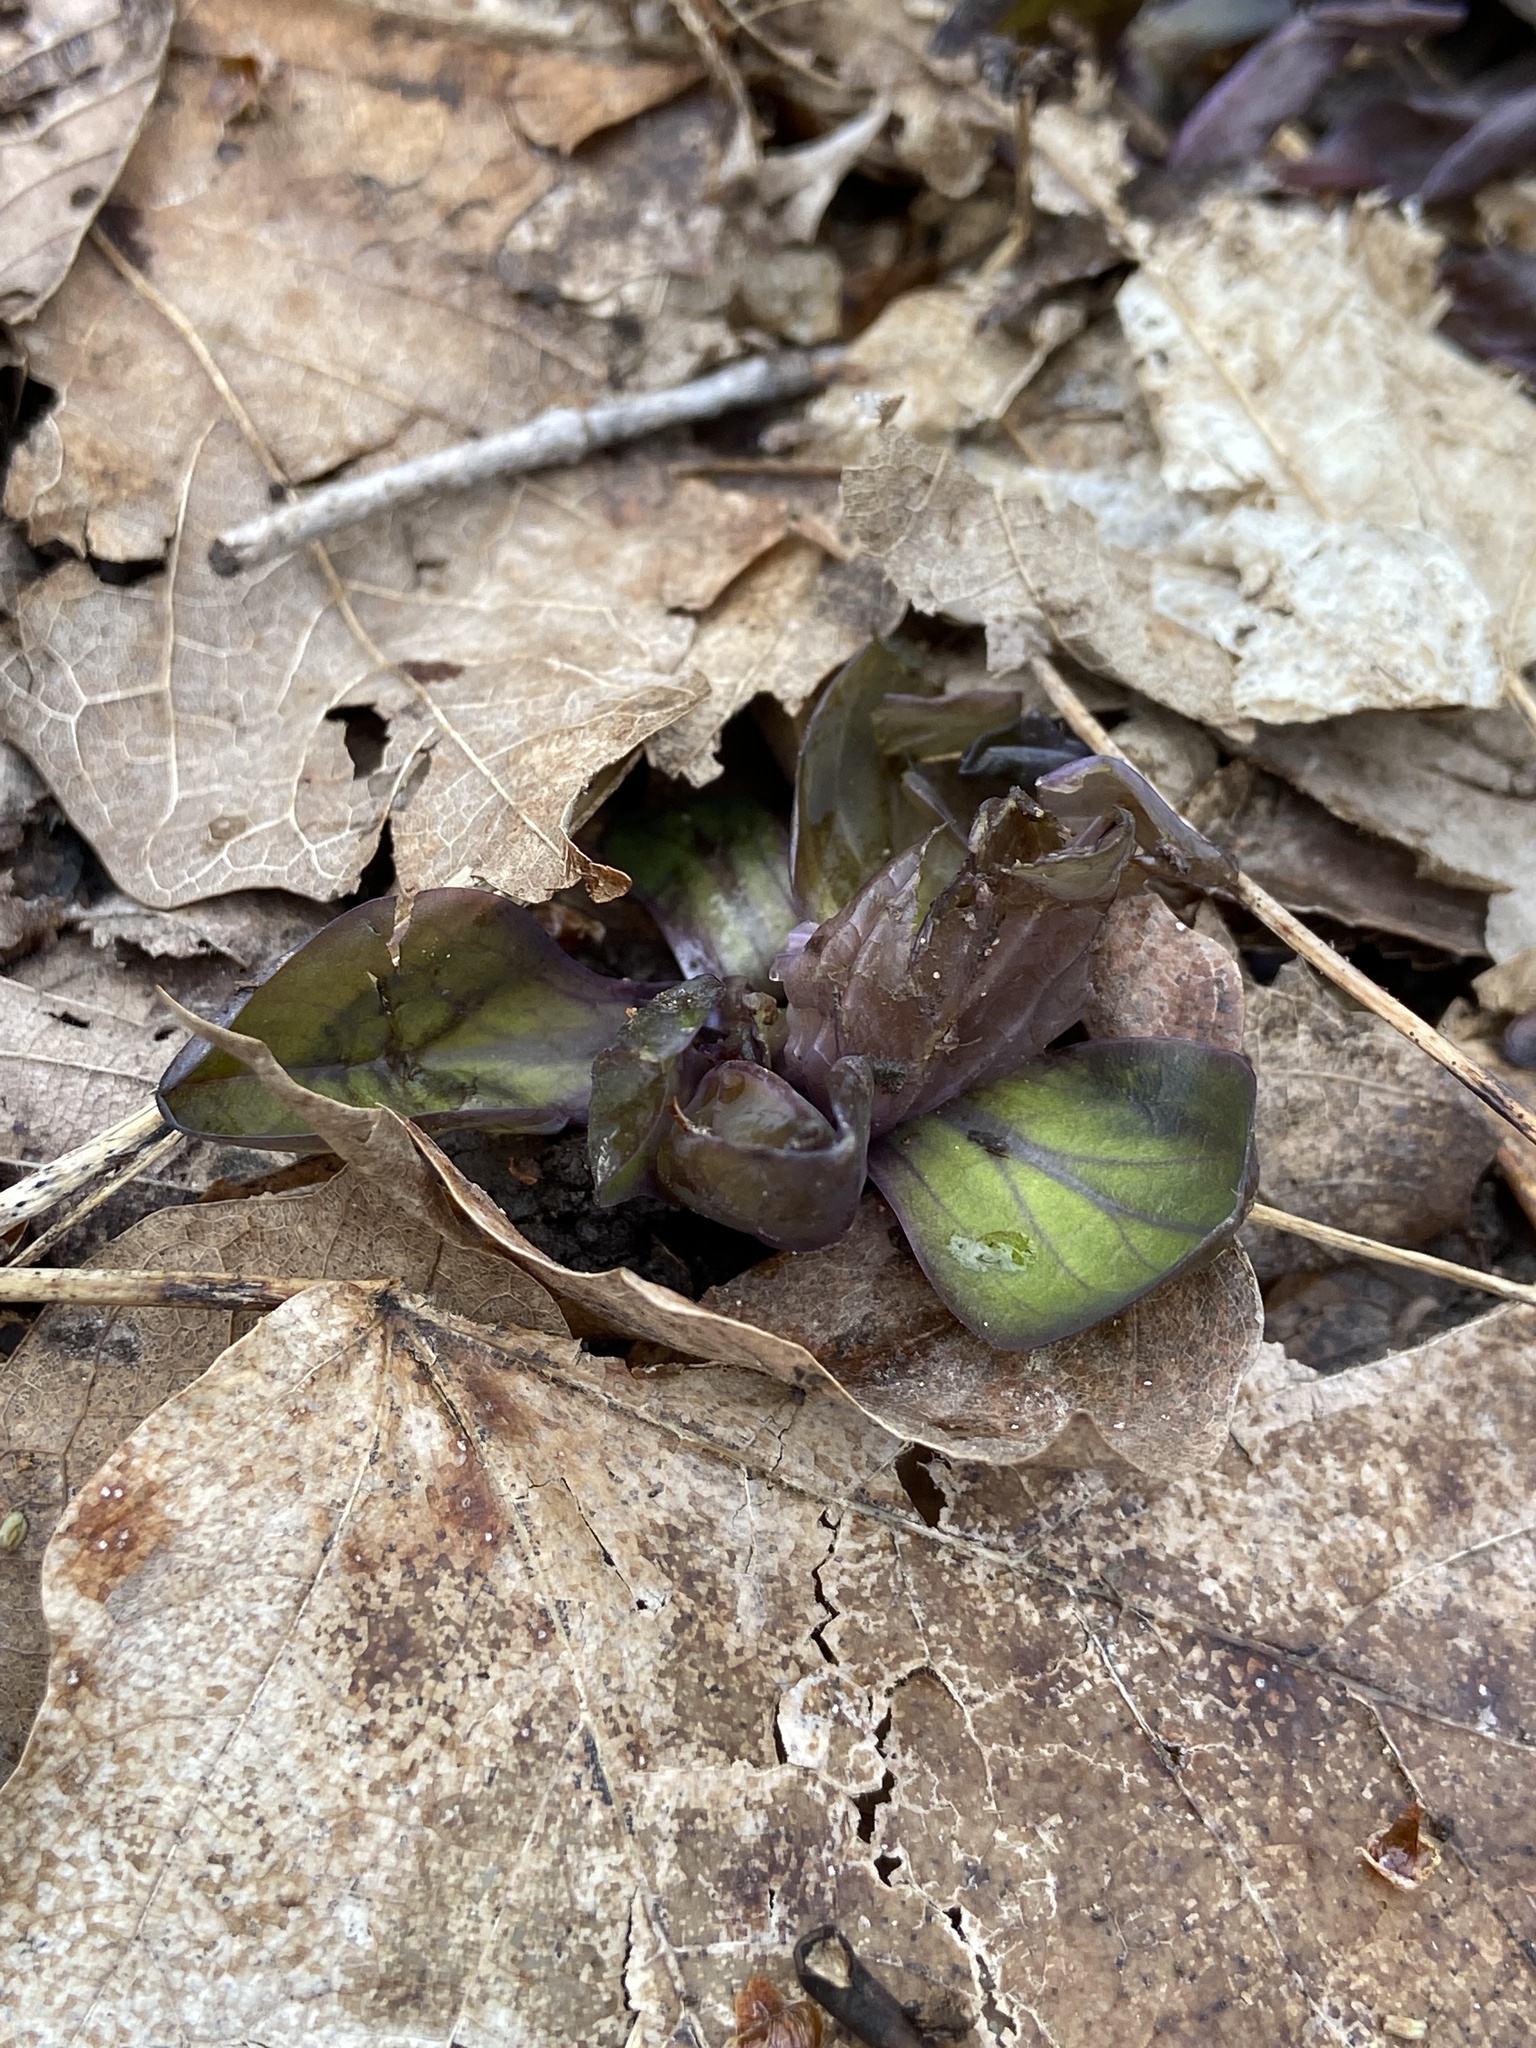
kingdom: Plantae
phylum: Tracheophyta
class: Magnoliopsida
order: Boraginales
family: Boraginaceae
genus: Mertensia
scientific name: Mertensia virginica
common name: Virginia bluebells
